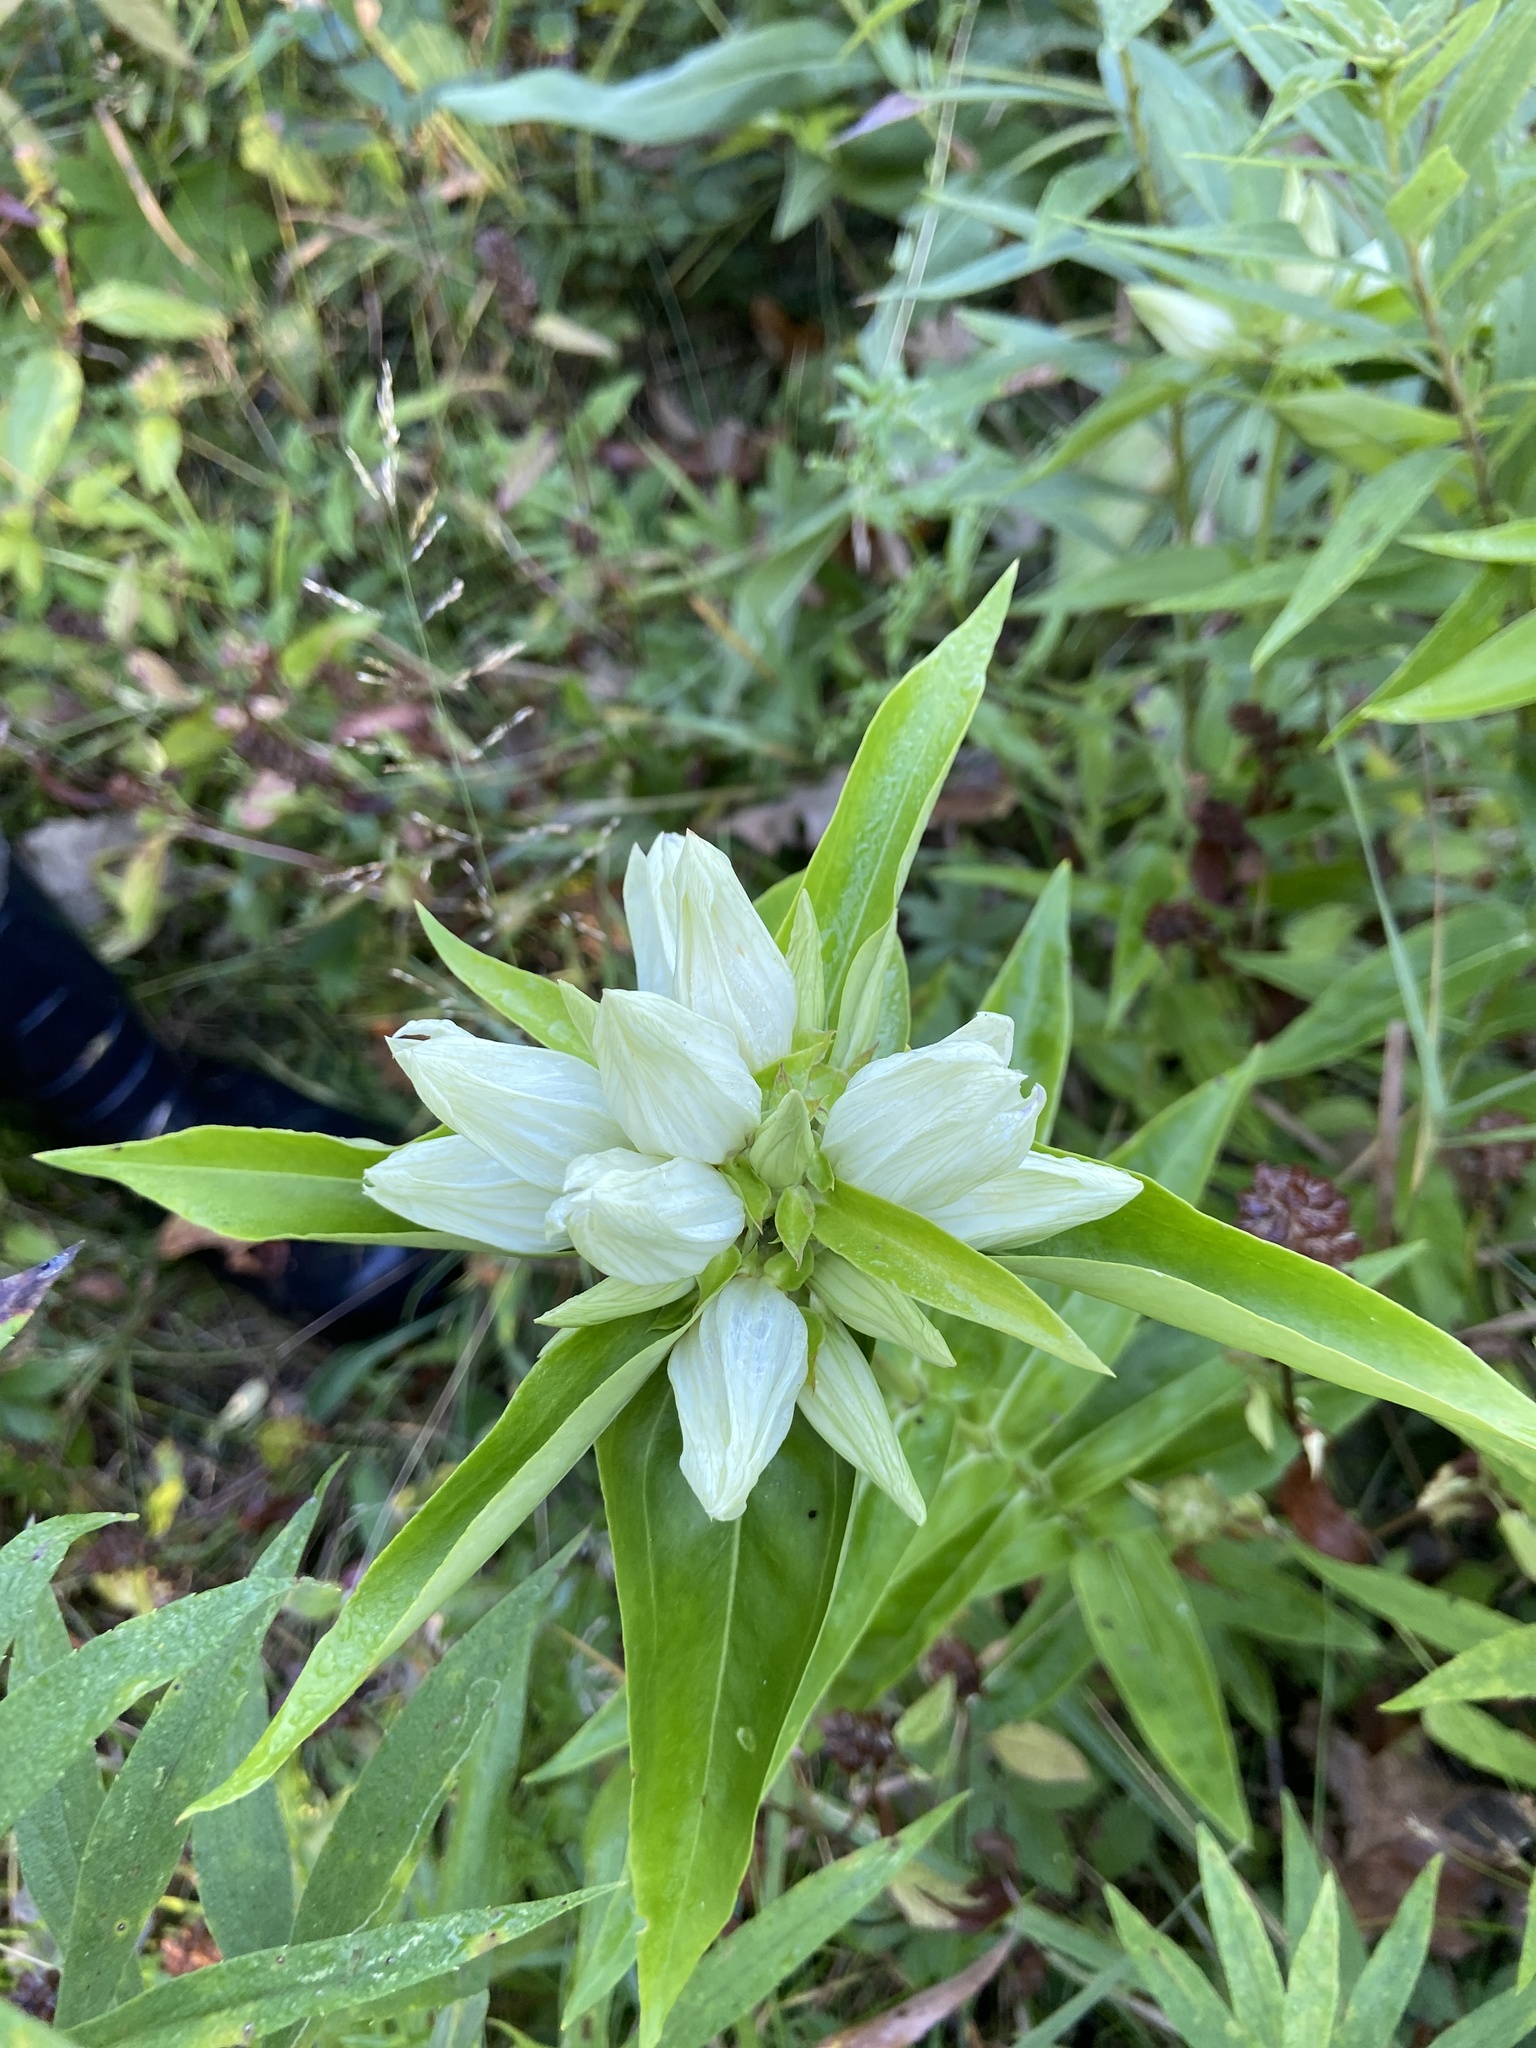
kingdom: Plantae
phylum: Tracheophyta
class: Magnoliopsida
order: Gentianales
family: Gentianaceae
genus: Gentiana
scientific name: Gentiana alba
